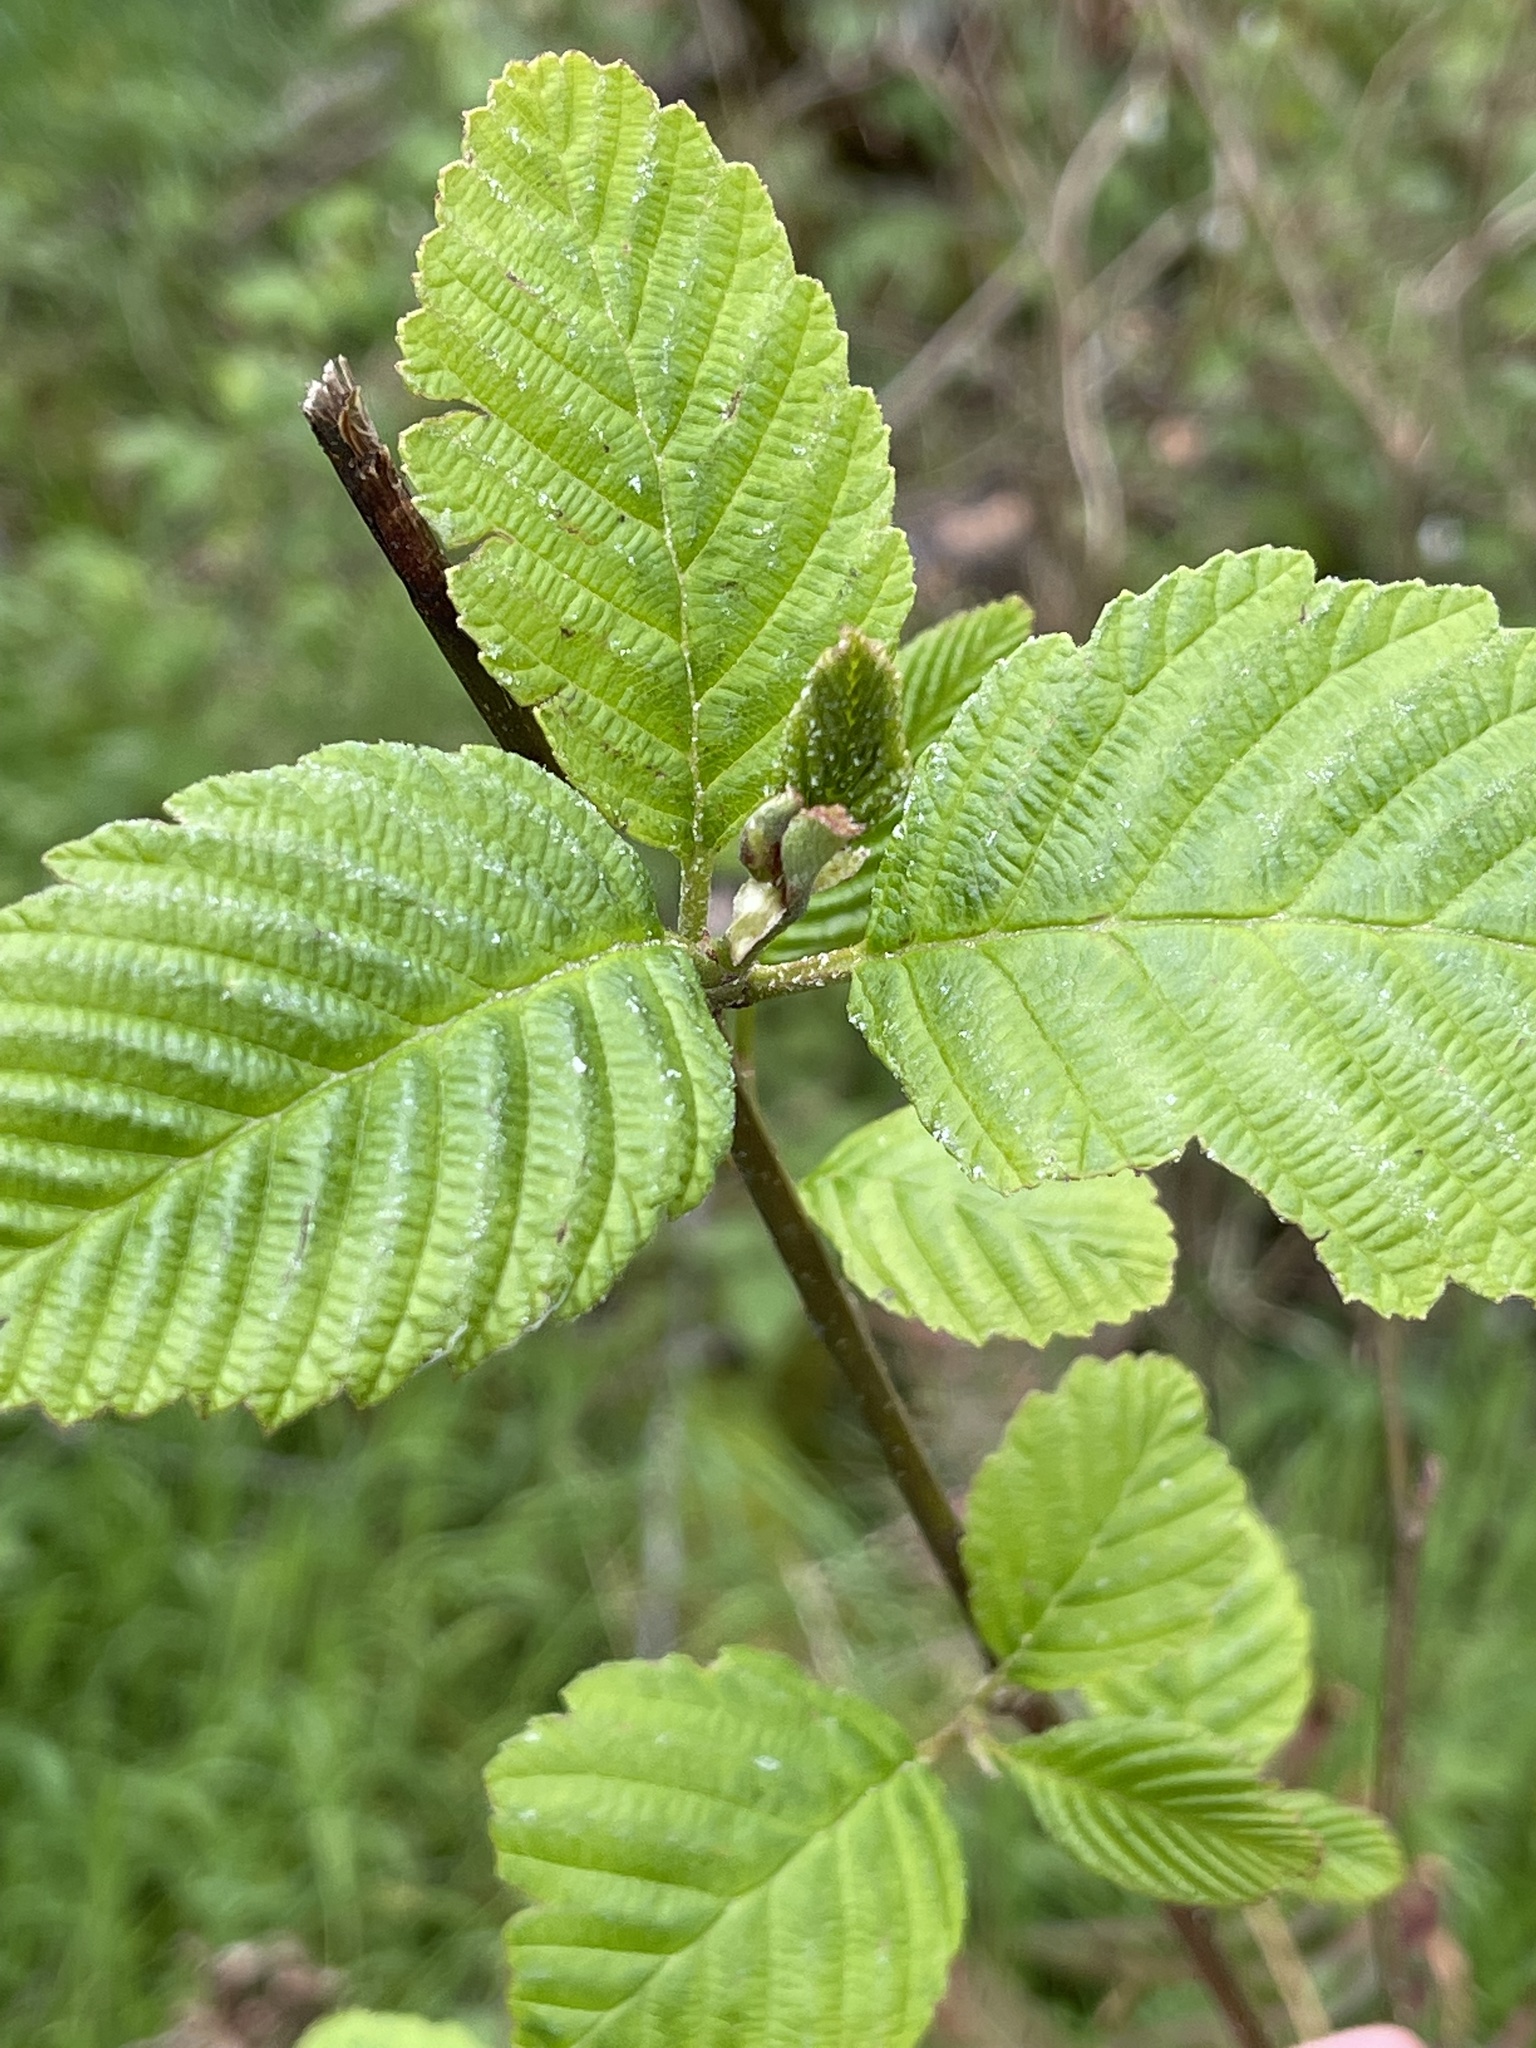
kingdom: Plantae
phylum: Tracheophyta
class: Magnoliopsida
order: Fagales
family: Betulaceae
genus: Alnus
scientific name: Alnus rubra
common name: Red alder
